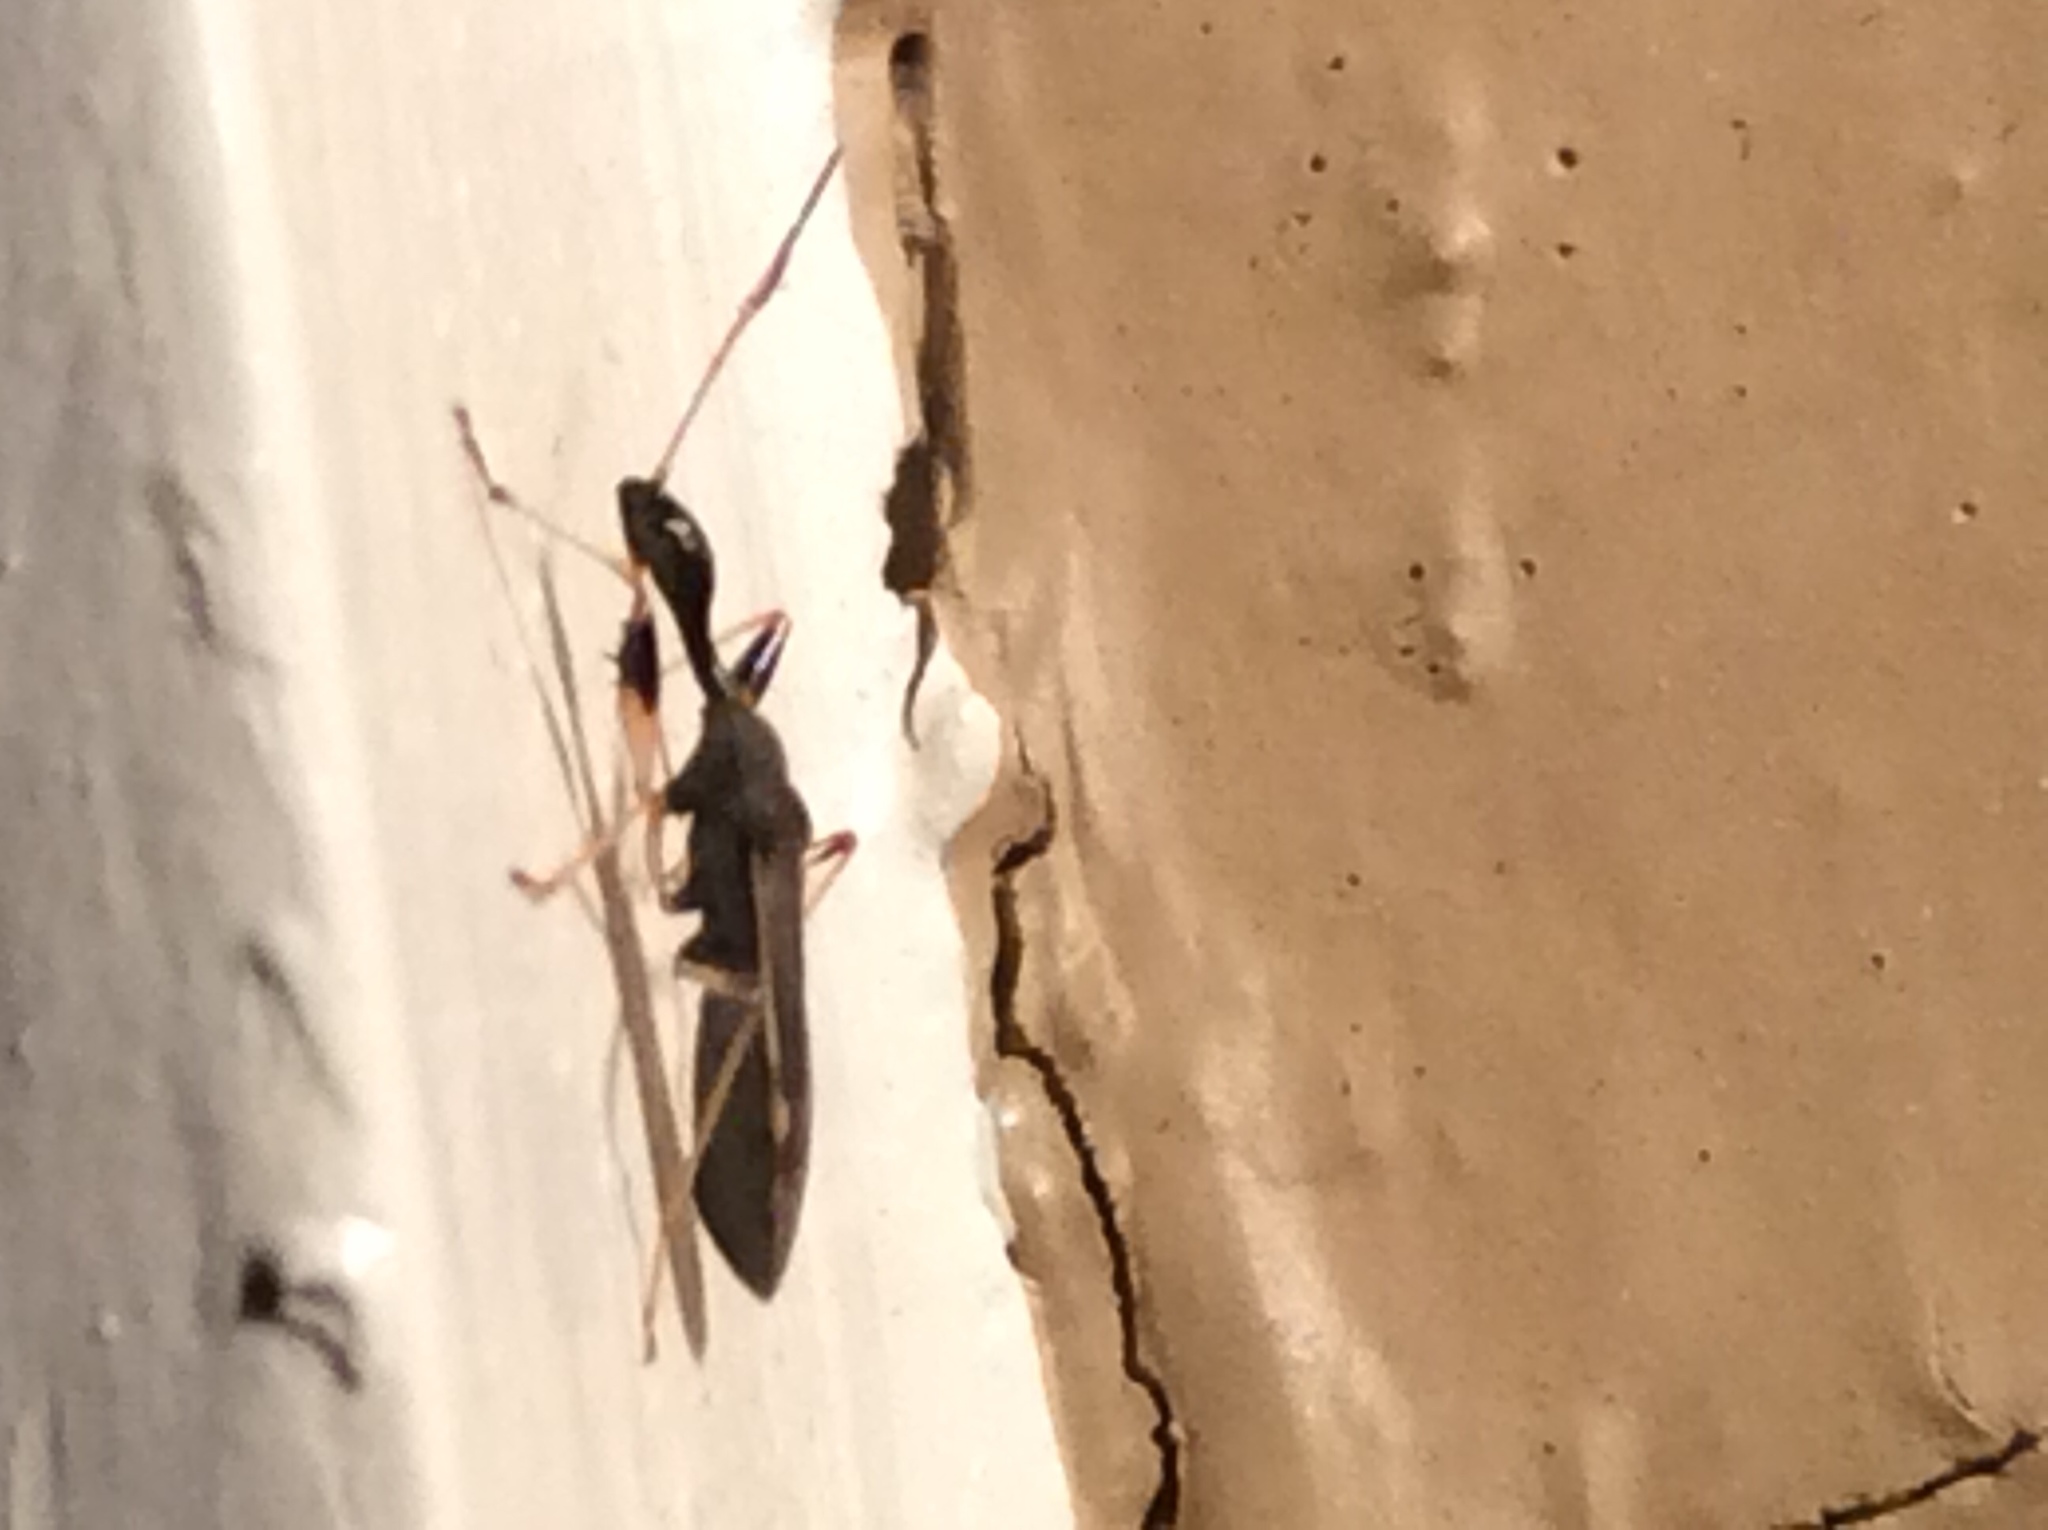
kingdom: Animalia
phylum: Arthropoda
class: Insecta
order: Hemiptera
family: Rhyparochromidae
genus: Myodocha
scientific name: Myodocha serripes
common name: Long-necked seed bug
